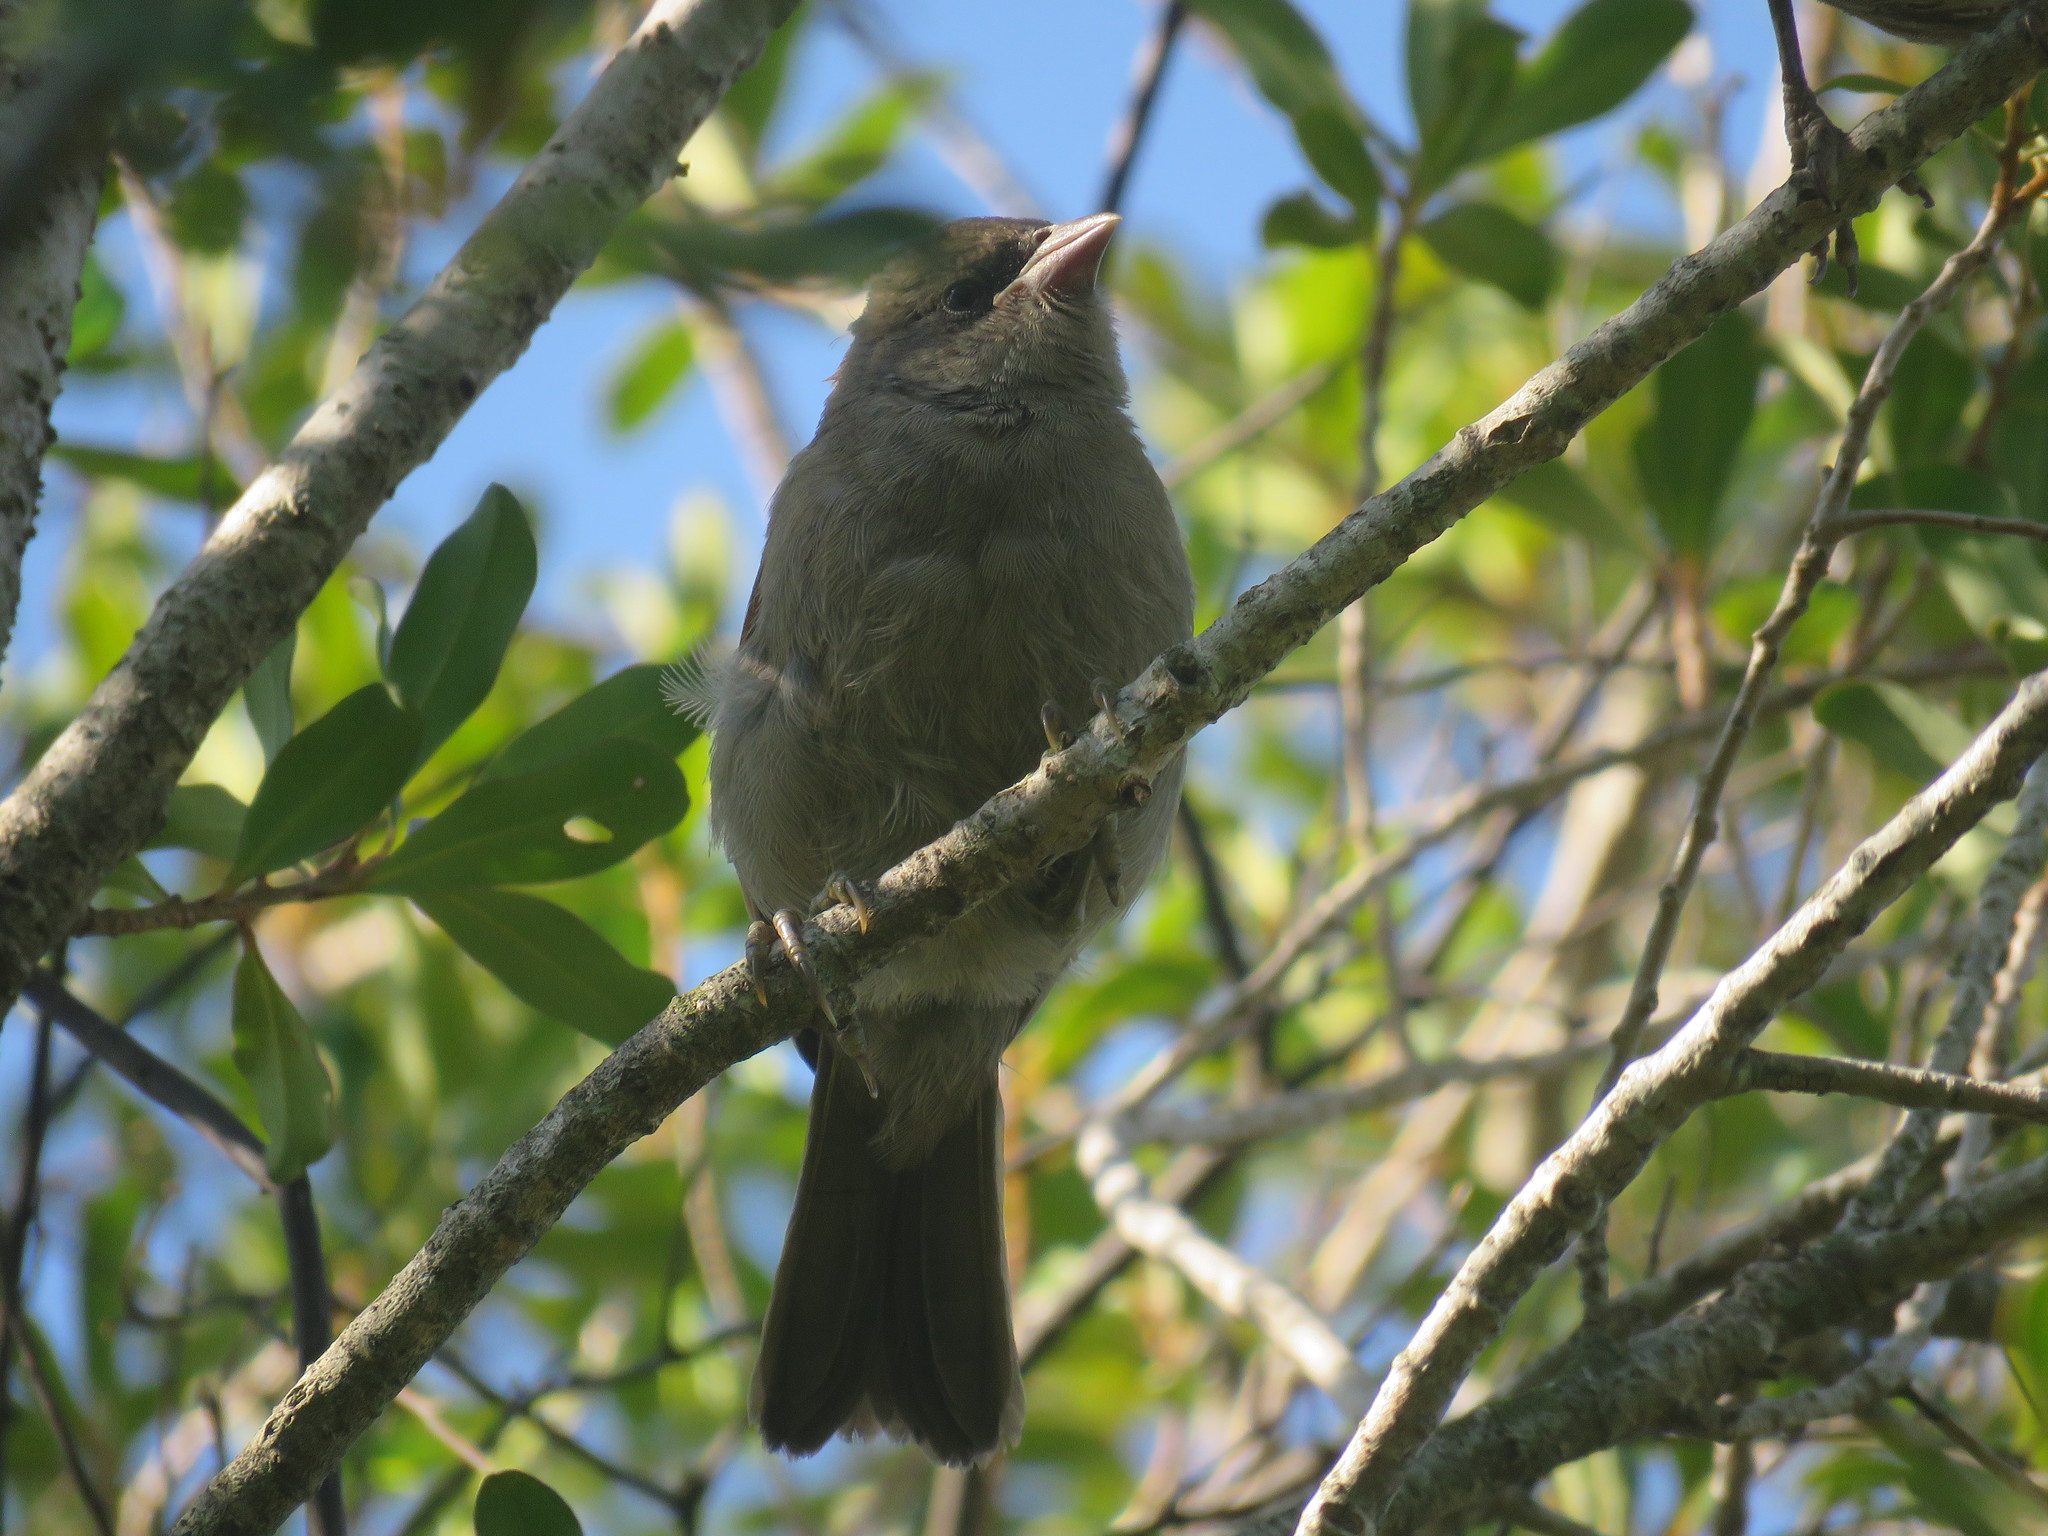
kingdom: Animalia
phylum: Chordata
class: Aves
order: Passeriformes
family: Icteridae
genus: Agelaioides
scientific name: Agelaioides badius
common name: Baywing
